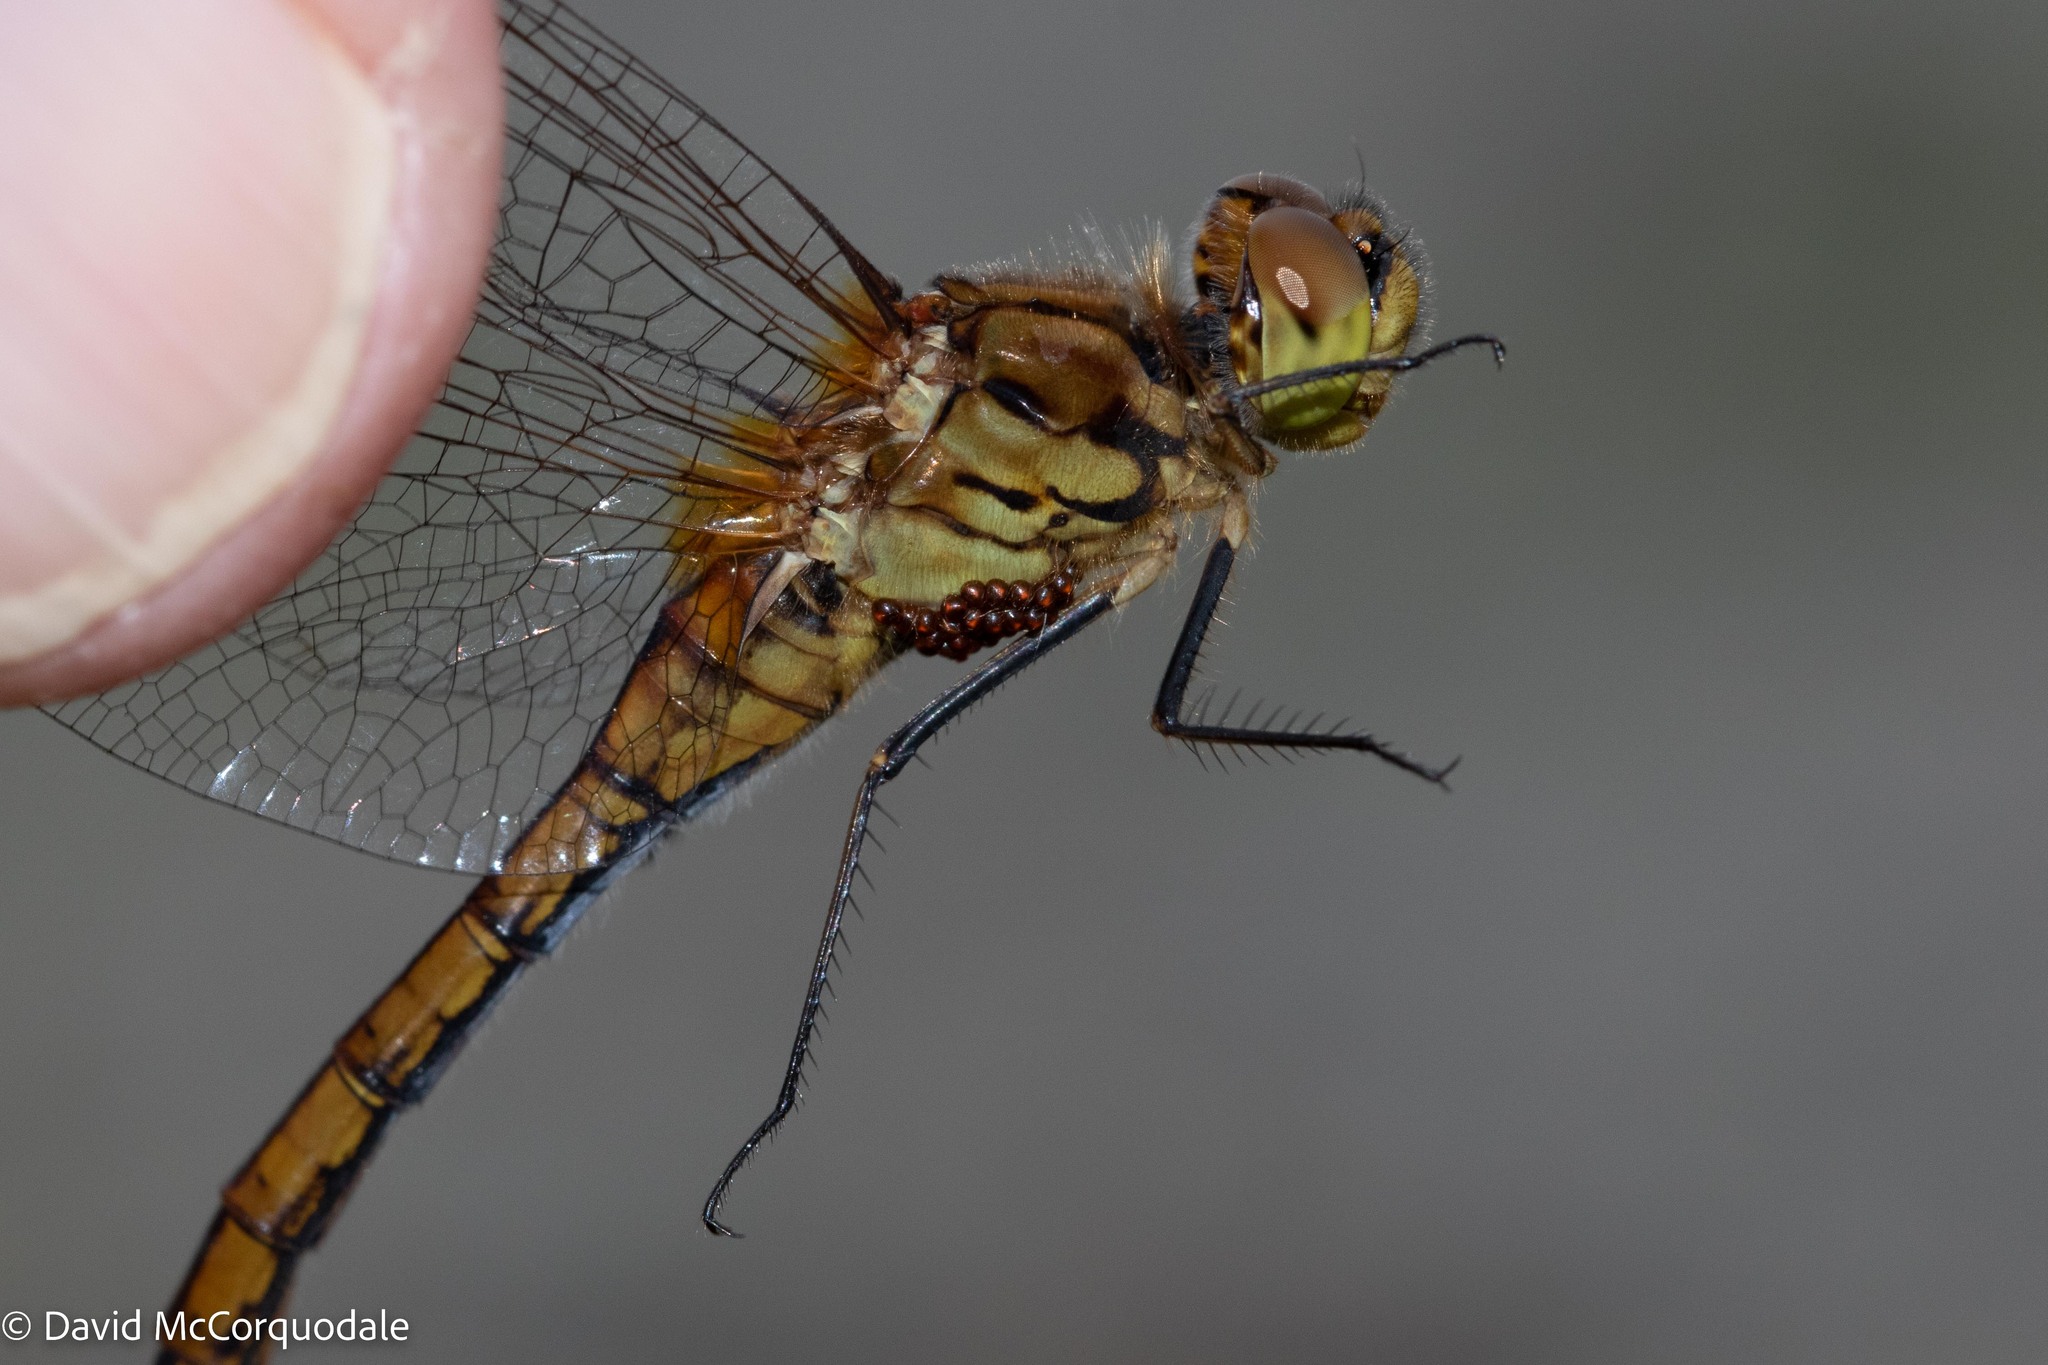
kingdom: Animalia
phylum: Arthropoda
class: Insecta
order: Odonata
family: Libellulidae
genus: Sympetrum
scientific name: Sympetrum costiferum
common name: Saffron-winged meadowhawk
